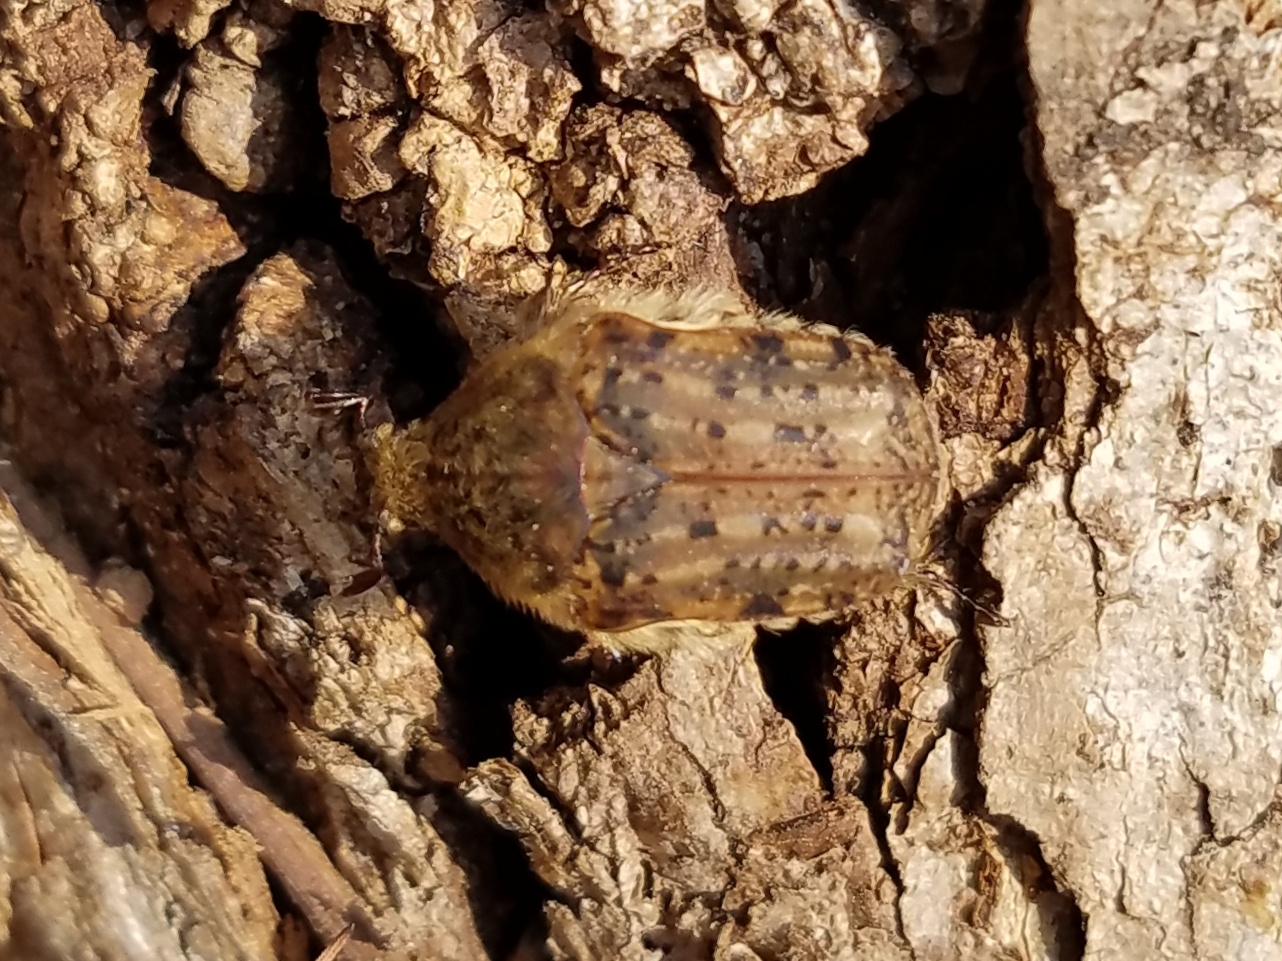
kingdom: Animalia
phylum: Arthropoda
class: Insecta
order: Coleoptera
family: Scarabaeidae
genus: Euphoria
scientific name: Euphoria inda
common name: Bumble flower beetle
